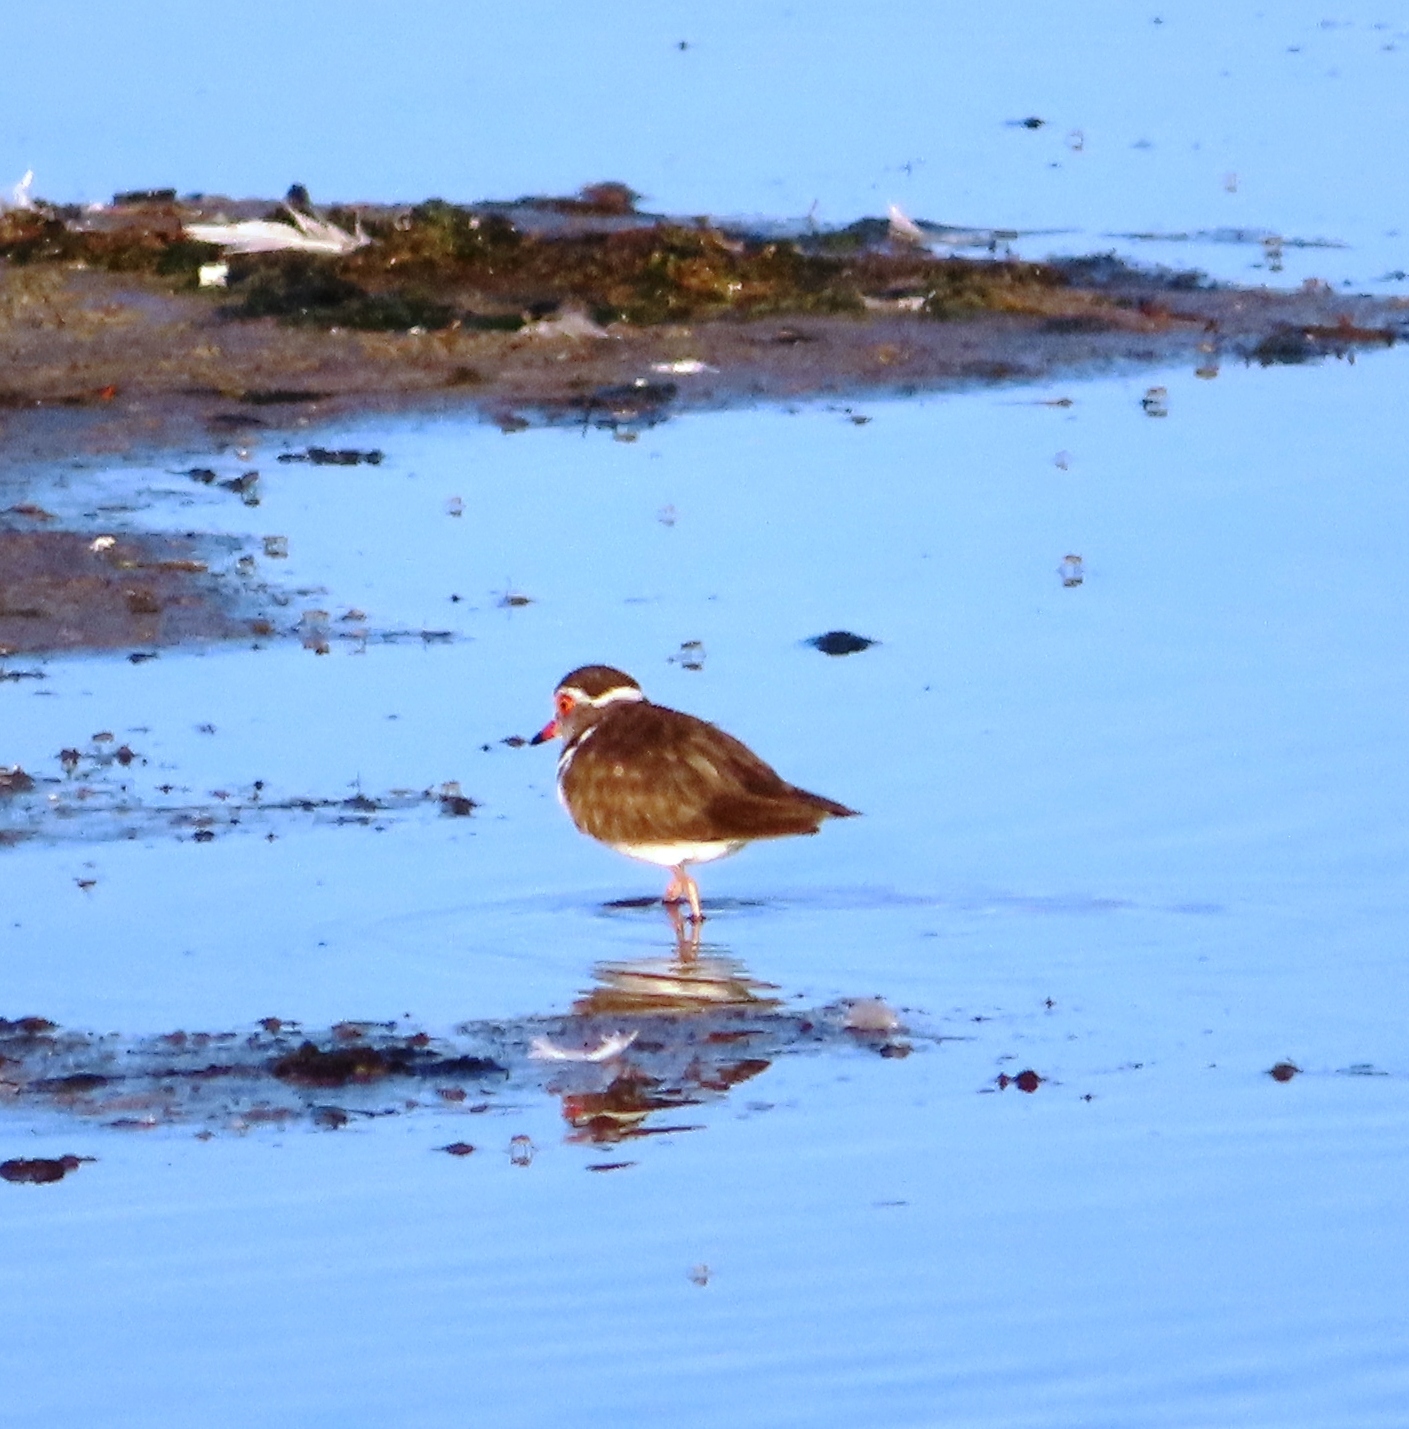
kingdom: Animalia
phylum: Chordata
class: Aves
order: Charadriiformes
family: Charadriidae
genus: Charadrius
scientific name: Charadrius tricollaris
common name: Three-banded plover
